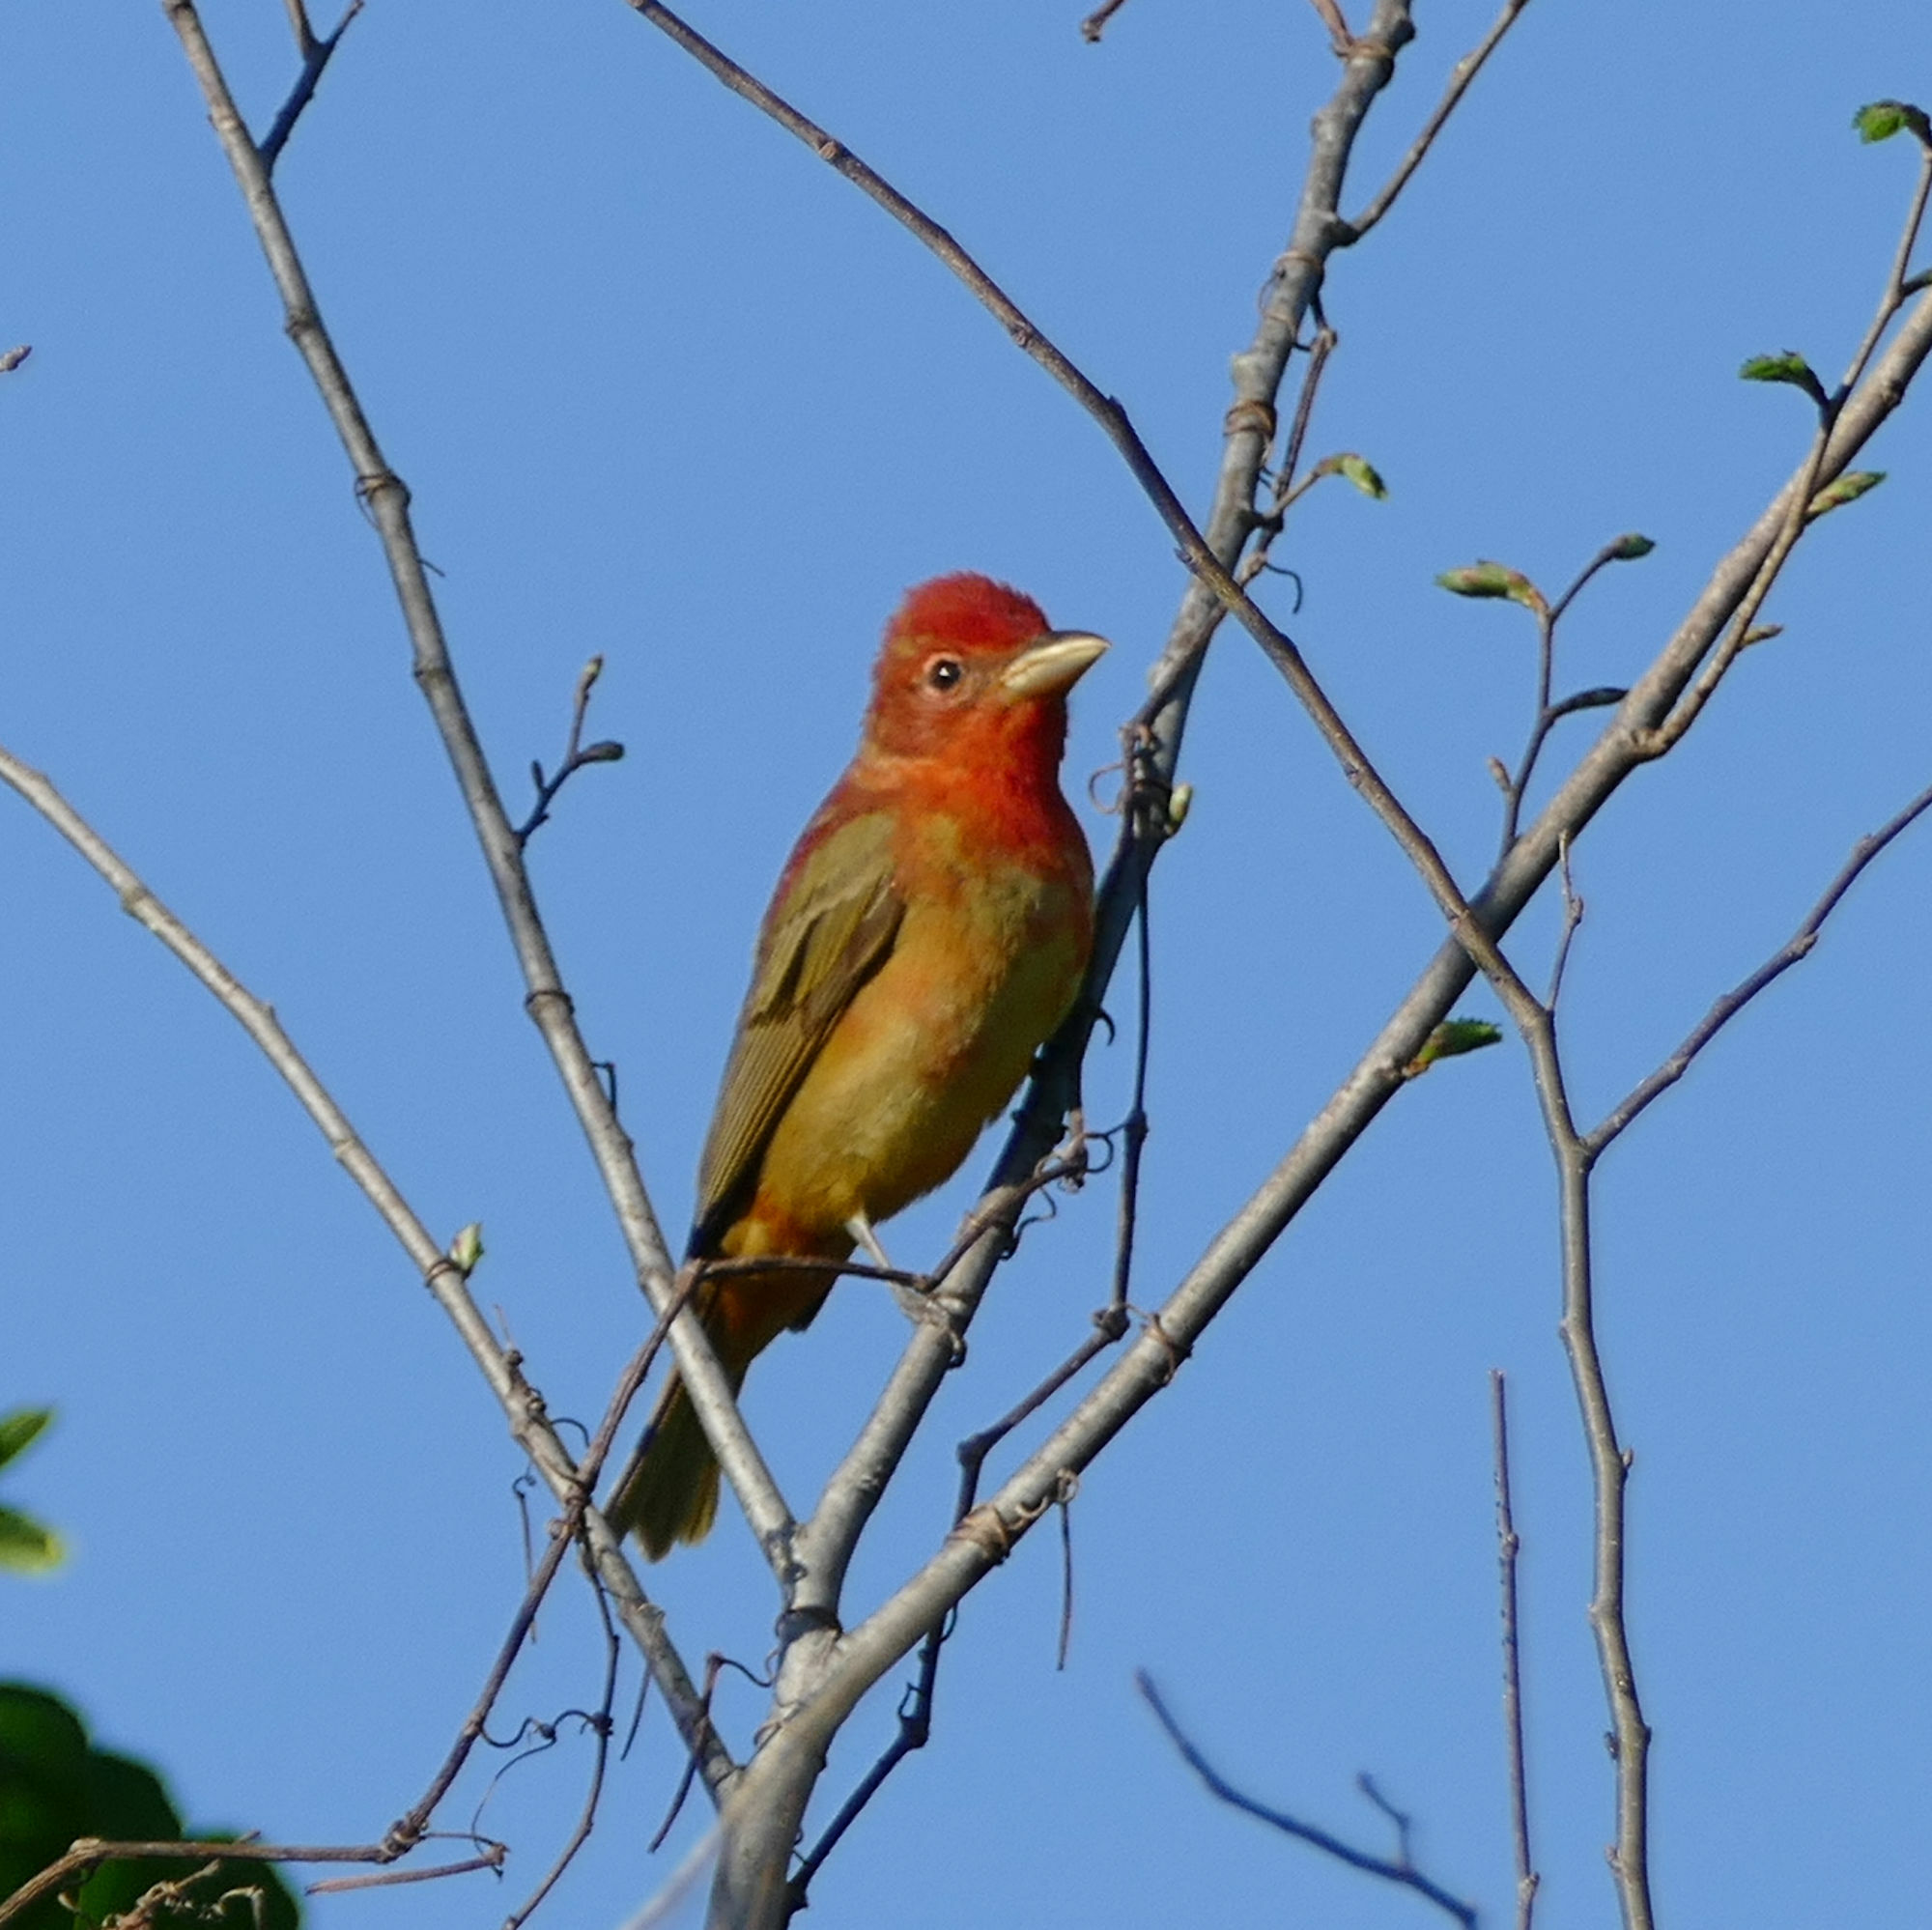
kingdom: Animalia
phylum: Chordata
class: Aves
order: Passeriformes
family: Cardinalidae
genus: Piranga
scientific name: Piranga rubra
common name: Summer tanager
